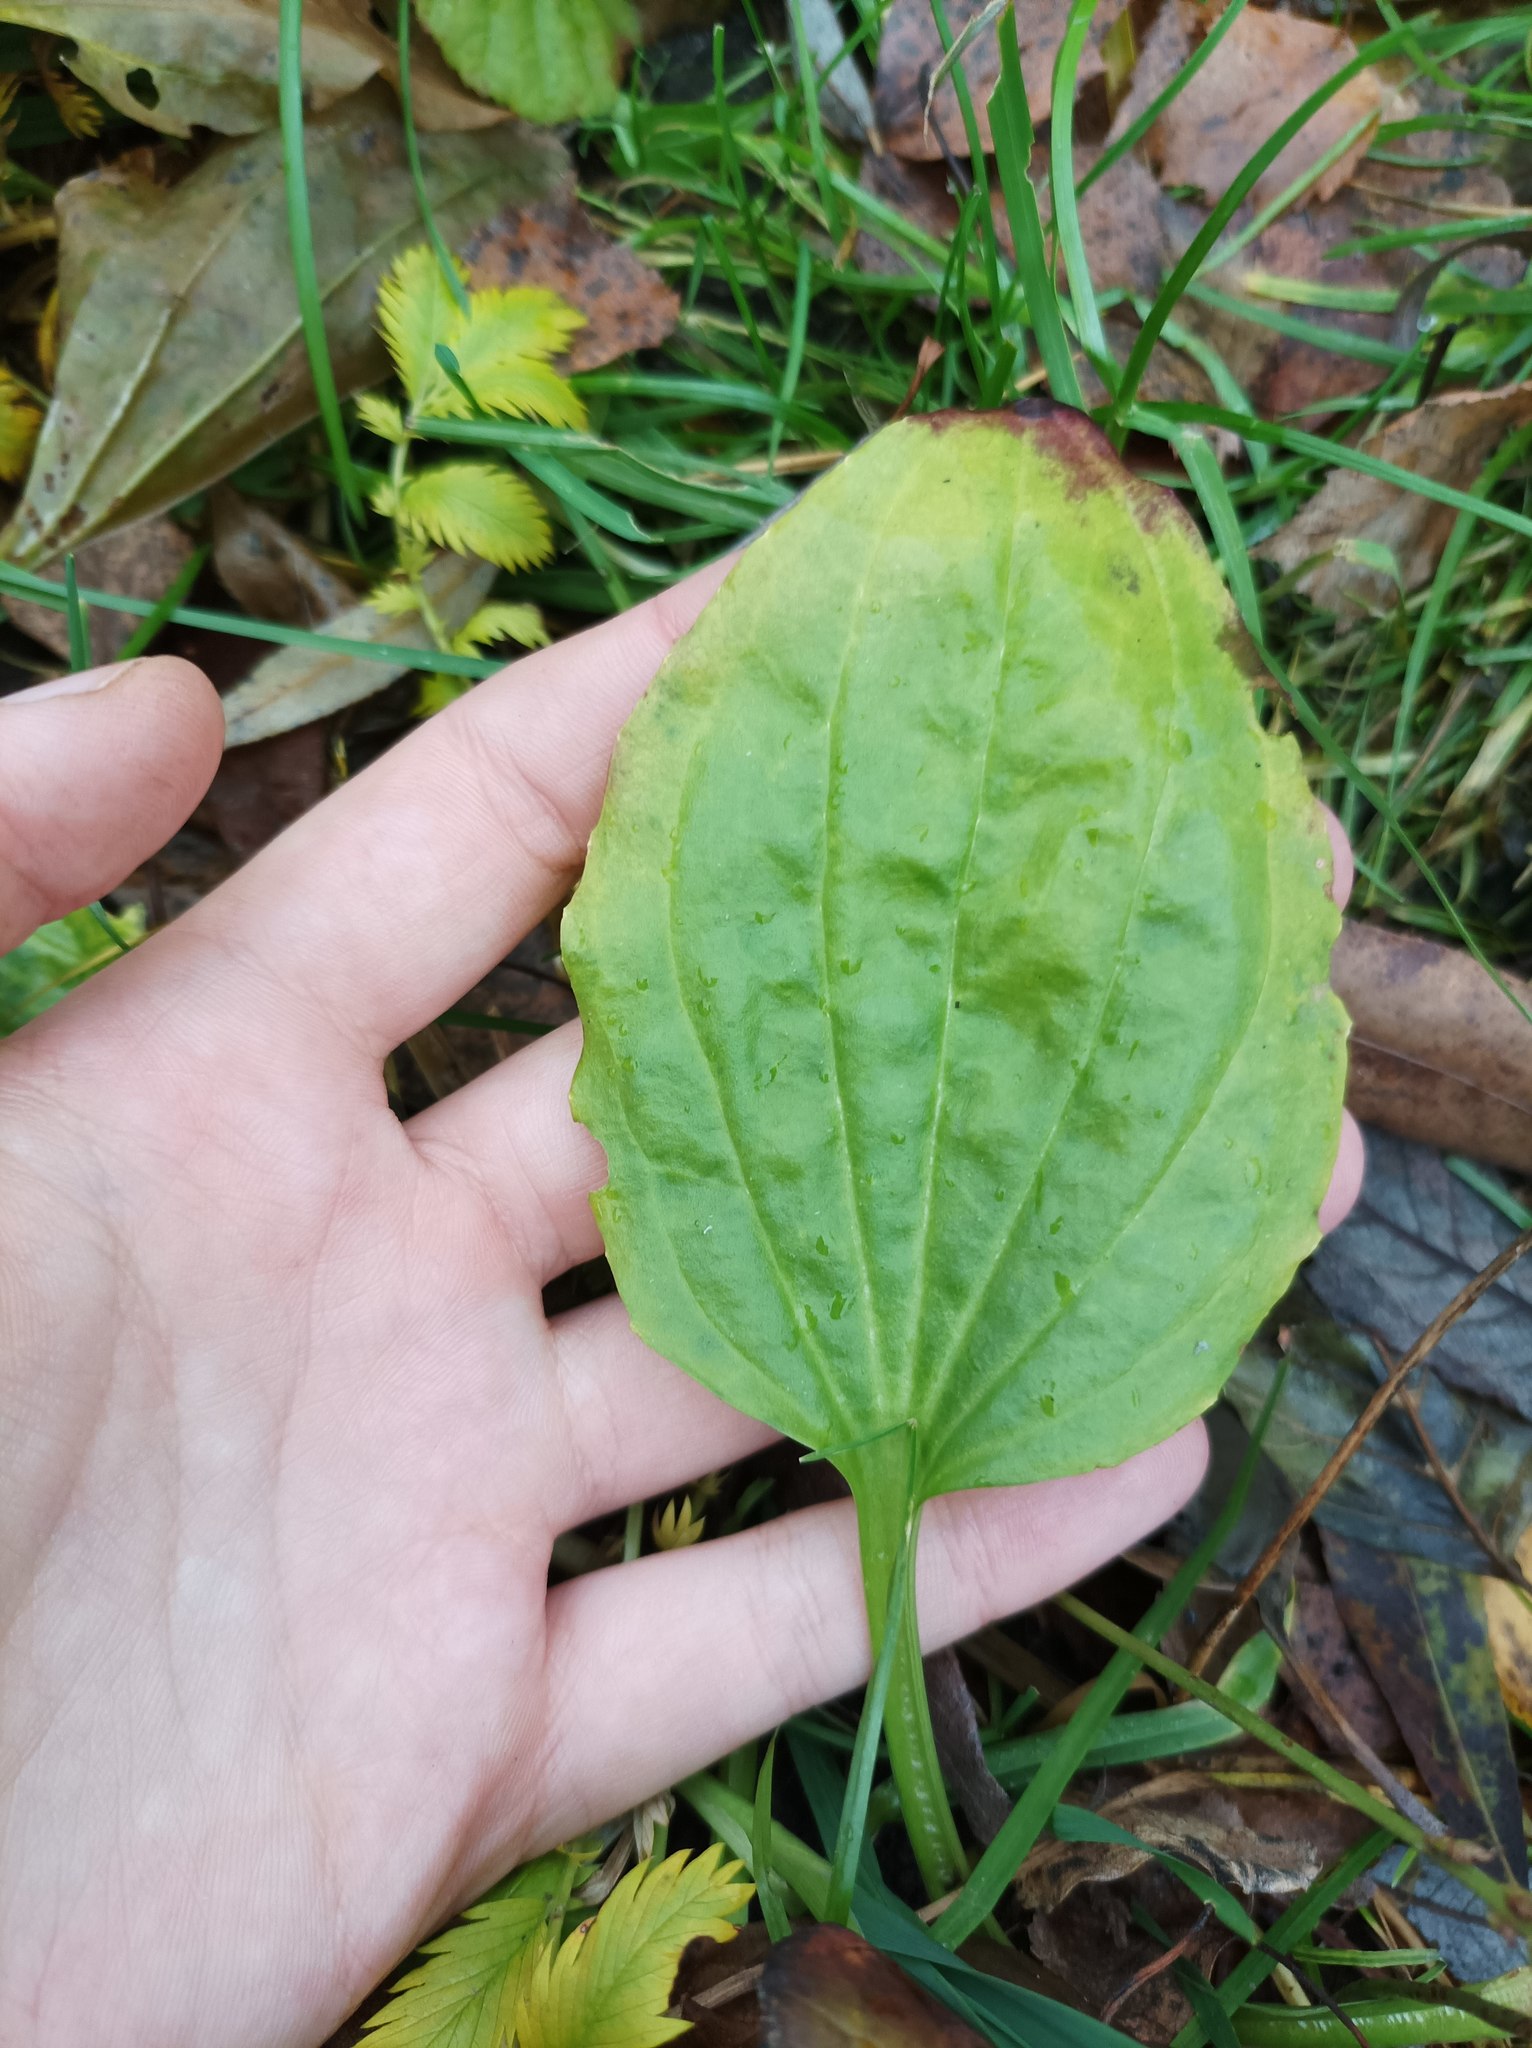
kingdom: Plantae
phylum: Tracheophyta
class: Magnoliopsida
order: Lamiales
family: Plantaginaceae
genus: Plantago
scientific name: Plantago major
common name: Common plantain
